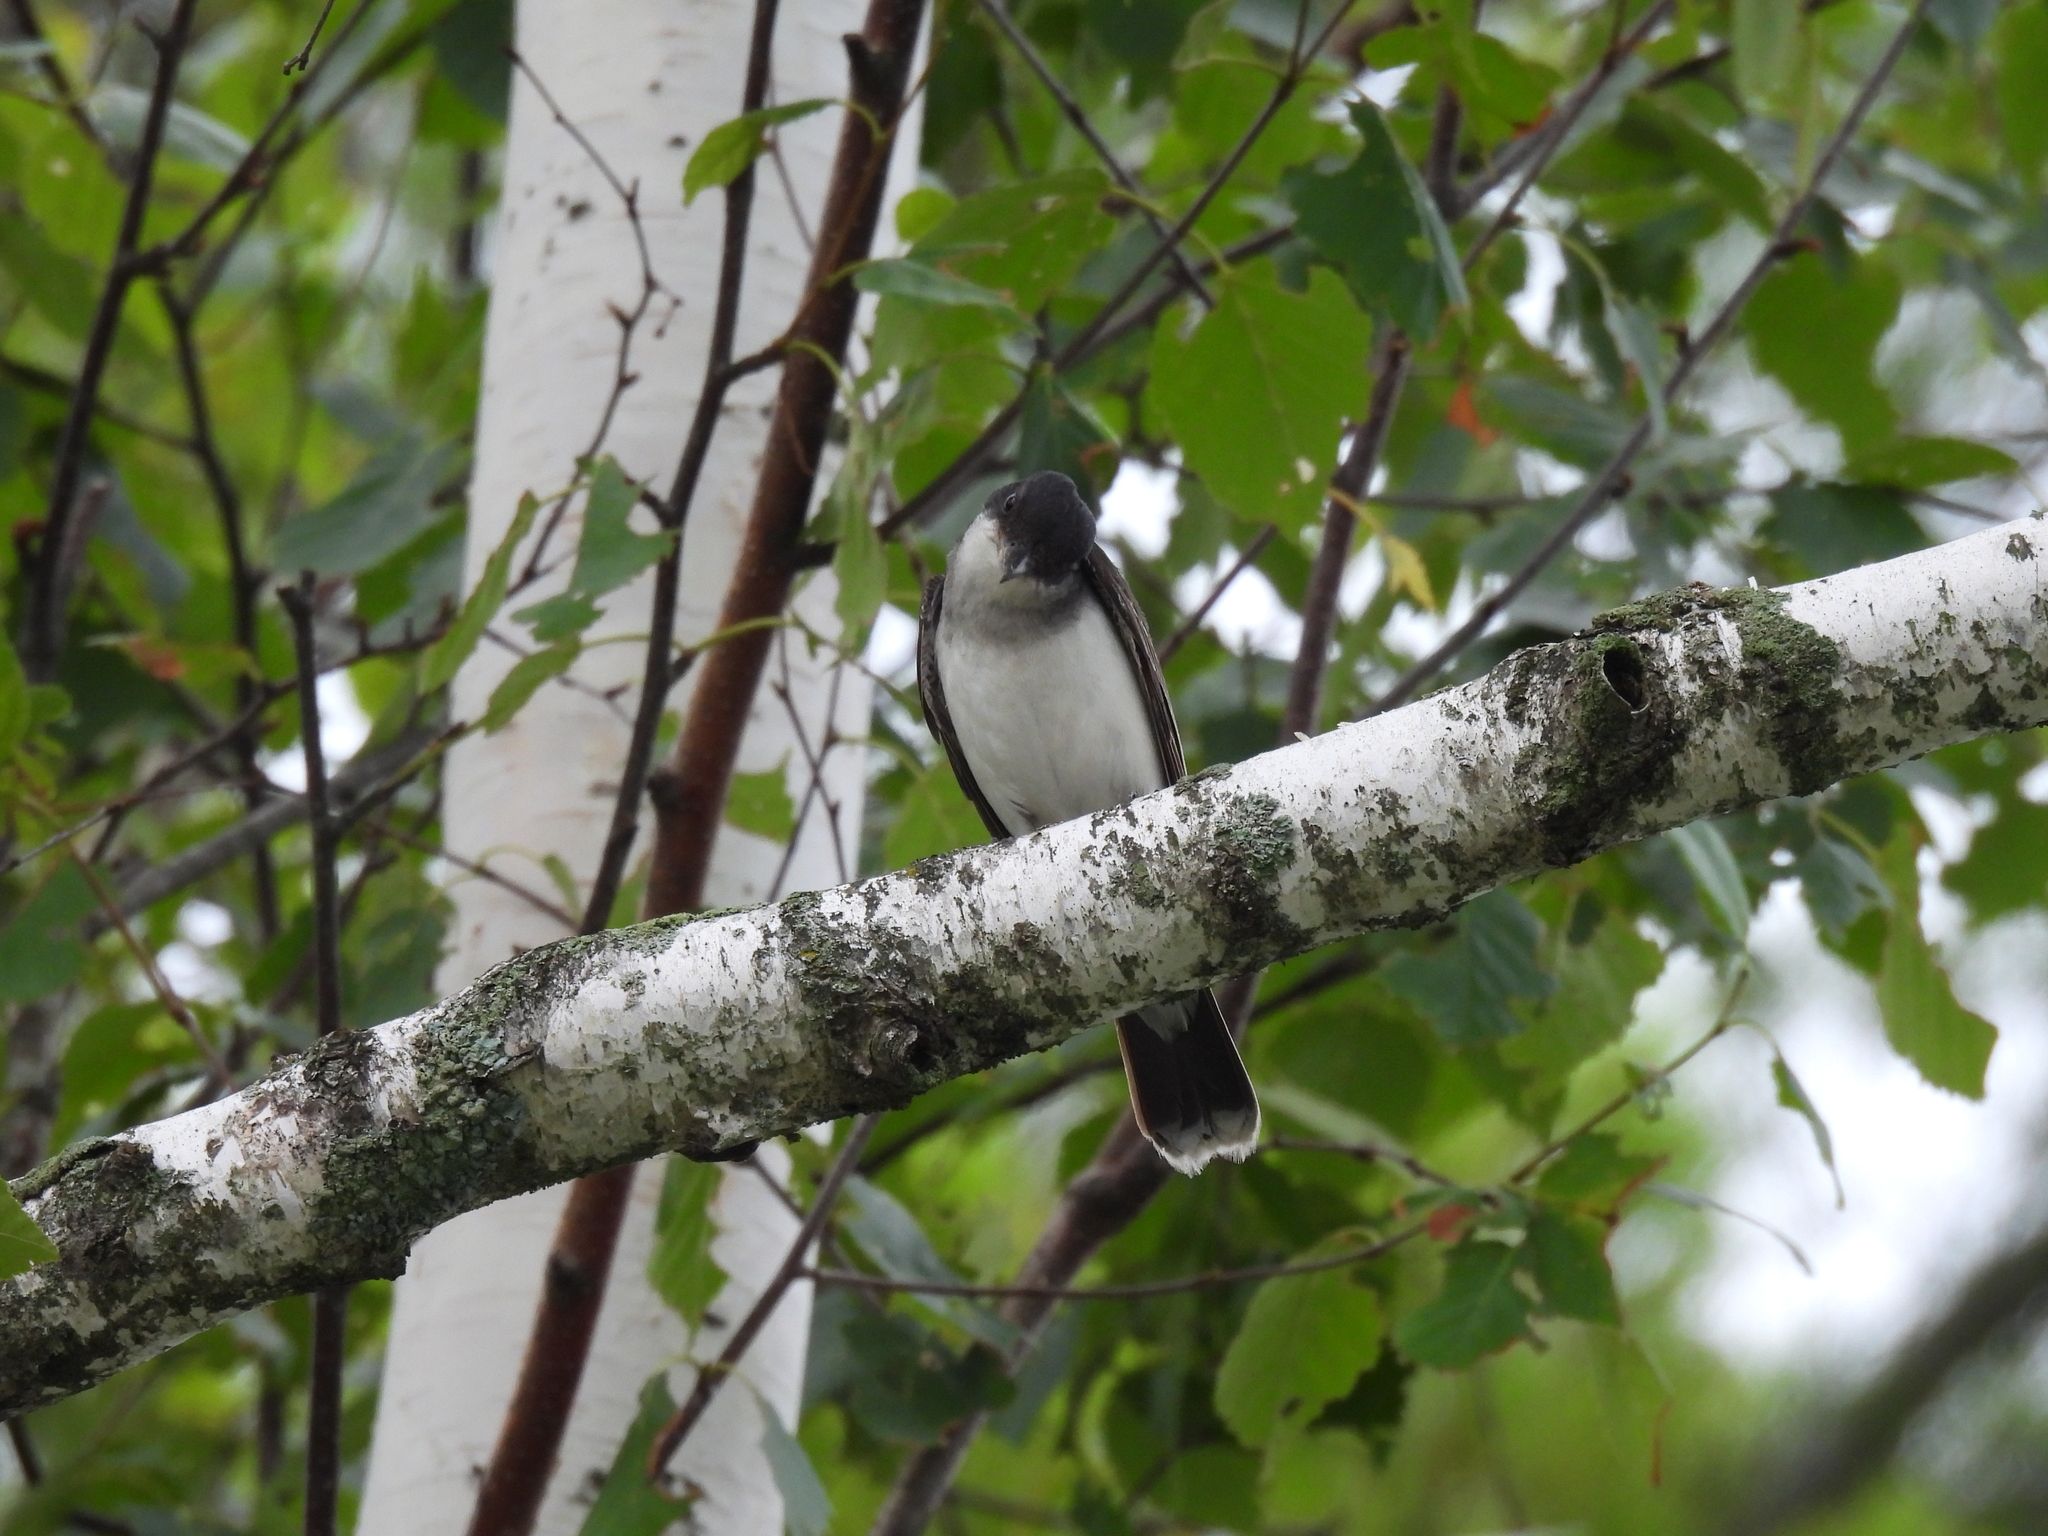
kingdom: Animalia
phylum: Chordata
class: Aves
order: Passeriformes
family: Tyrannidae
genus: Tyrannus
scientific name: Tyrannus tyrannus
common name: Eastern kingbird
